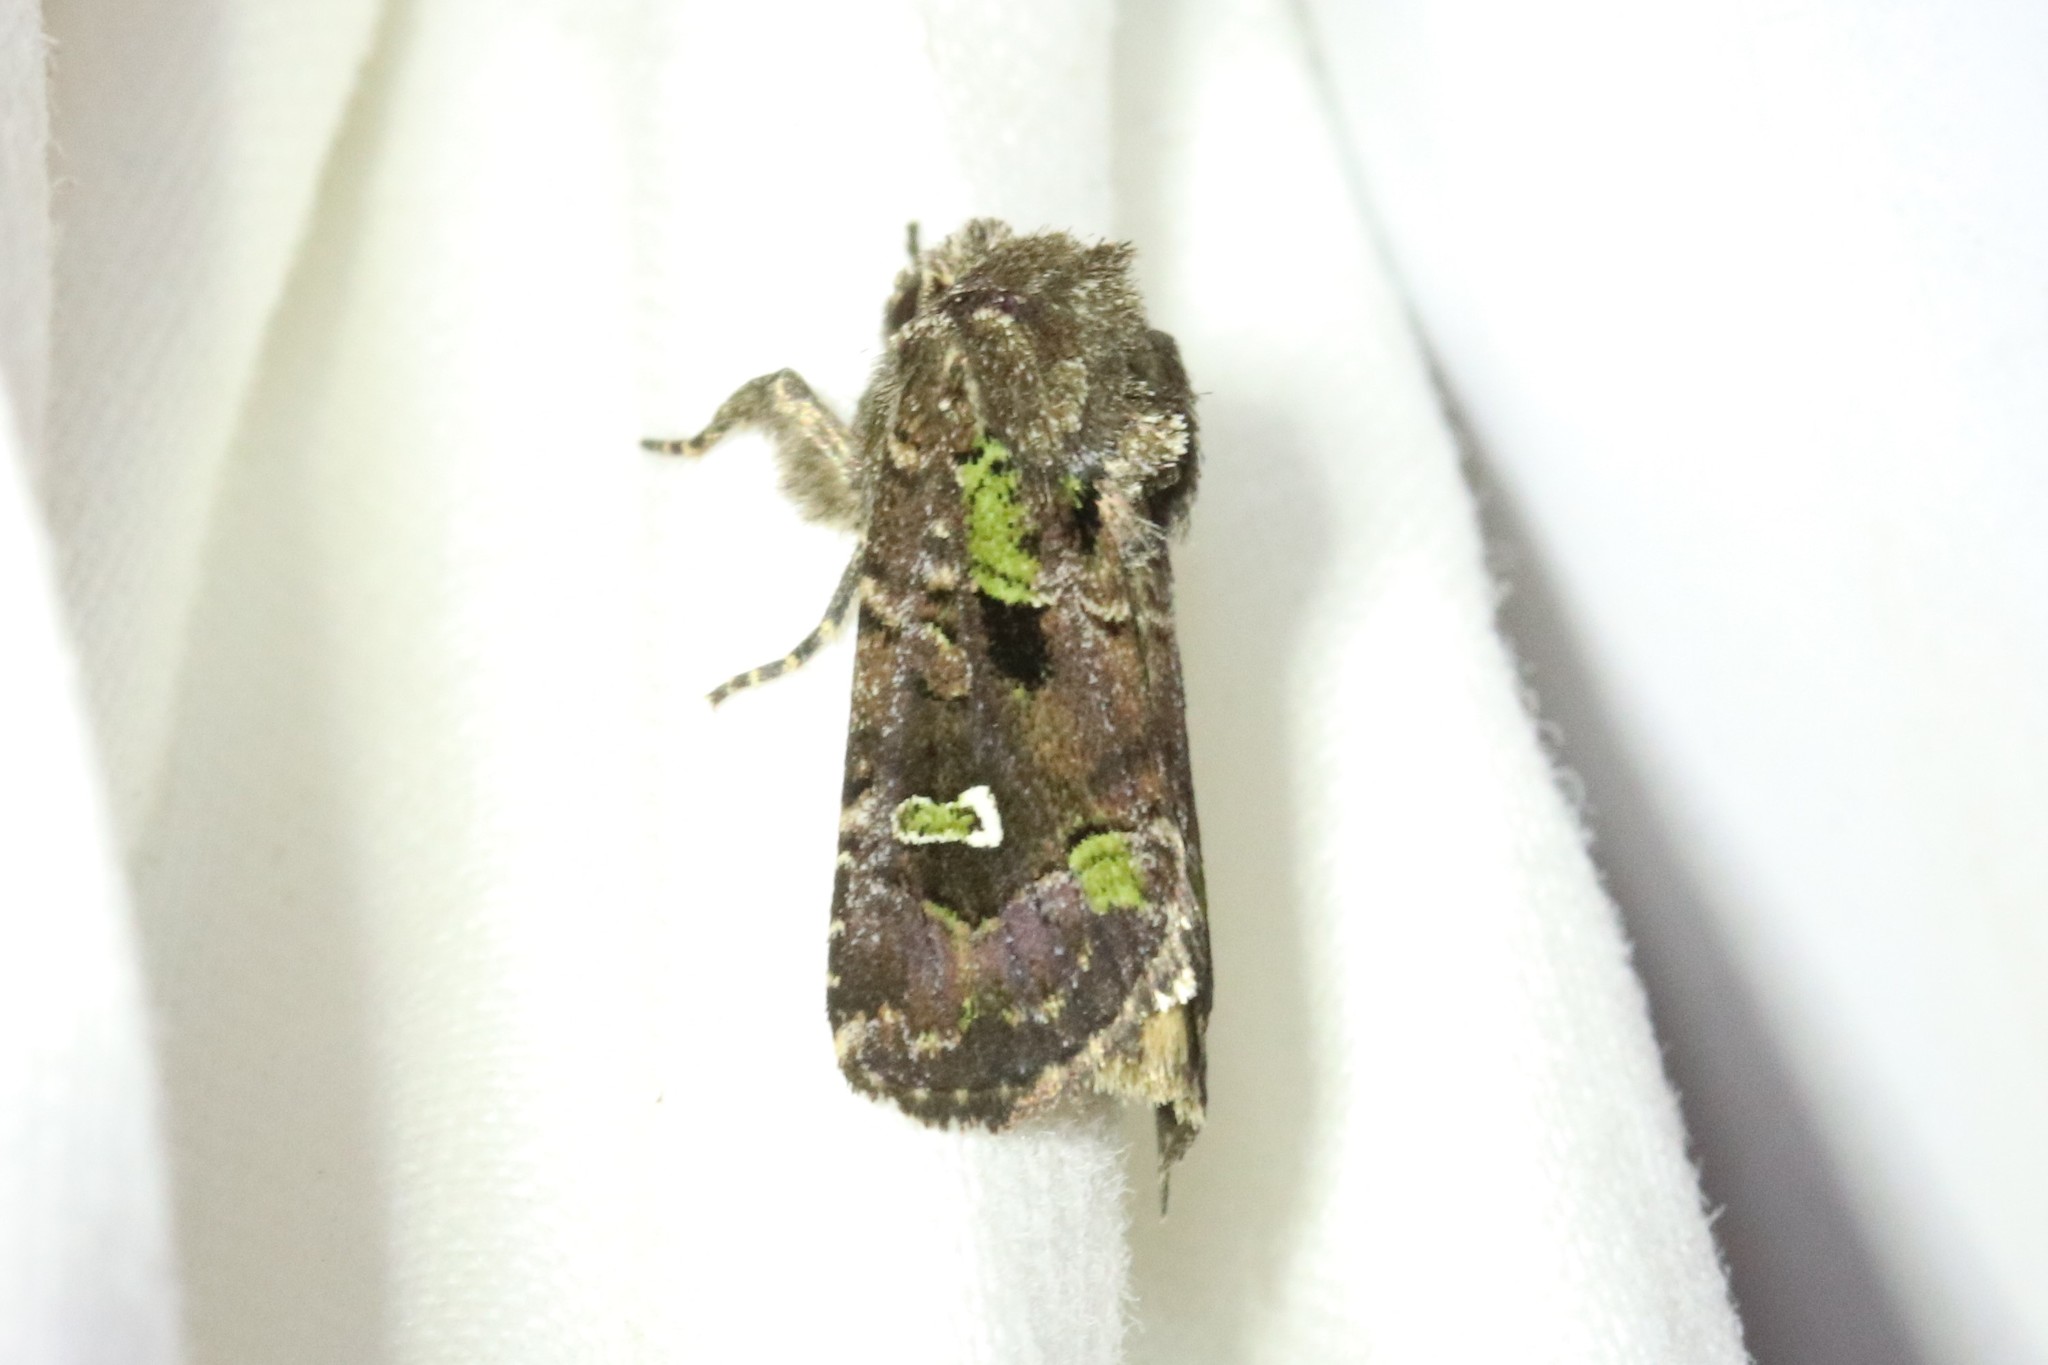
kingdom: Animalia
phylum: Arthropoda
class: Insecta
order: Lepidoptera
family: Noctuidae
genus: Lacinipolia
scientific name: Lacinipolia renigera
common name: Kidney-spotted minor
